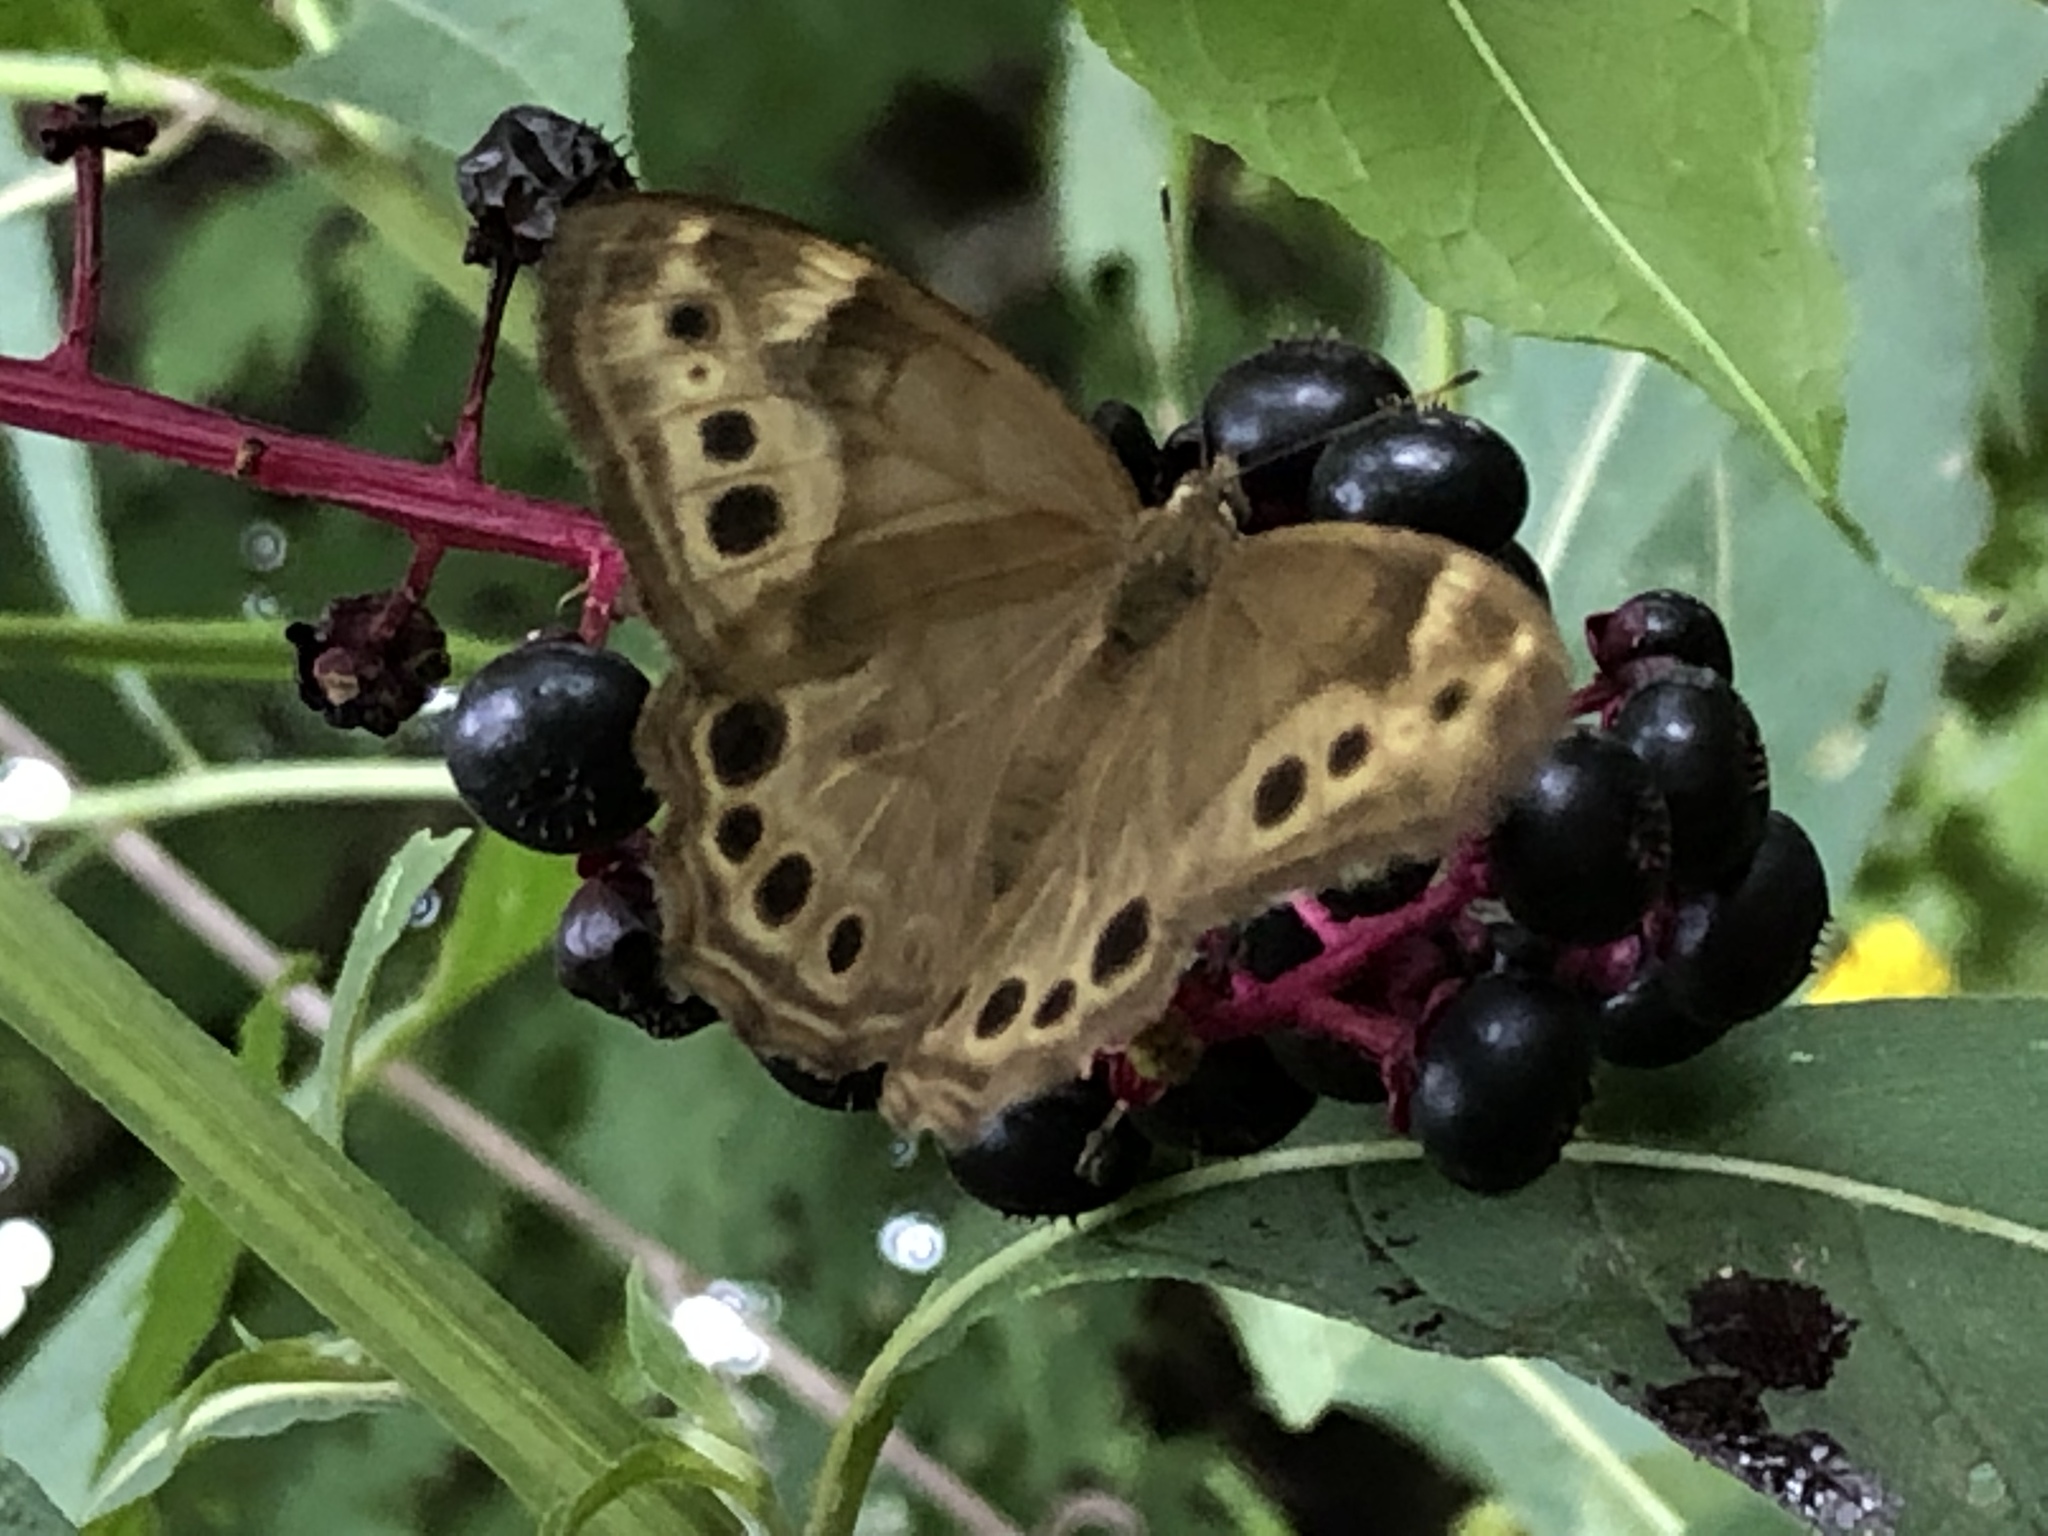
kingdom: Animalia
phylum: Arthropoda
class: Insecta
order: Lepidoptera
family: Nymphalidae
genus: Lethe
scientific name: Lethe anthedon
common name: Northern pearly-eye
